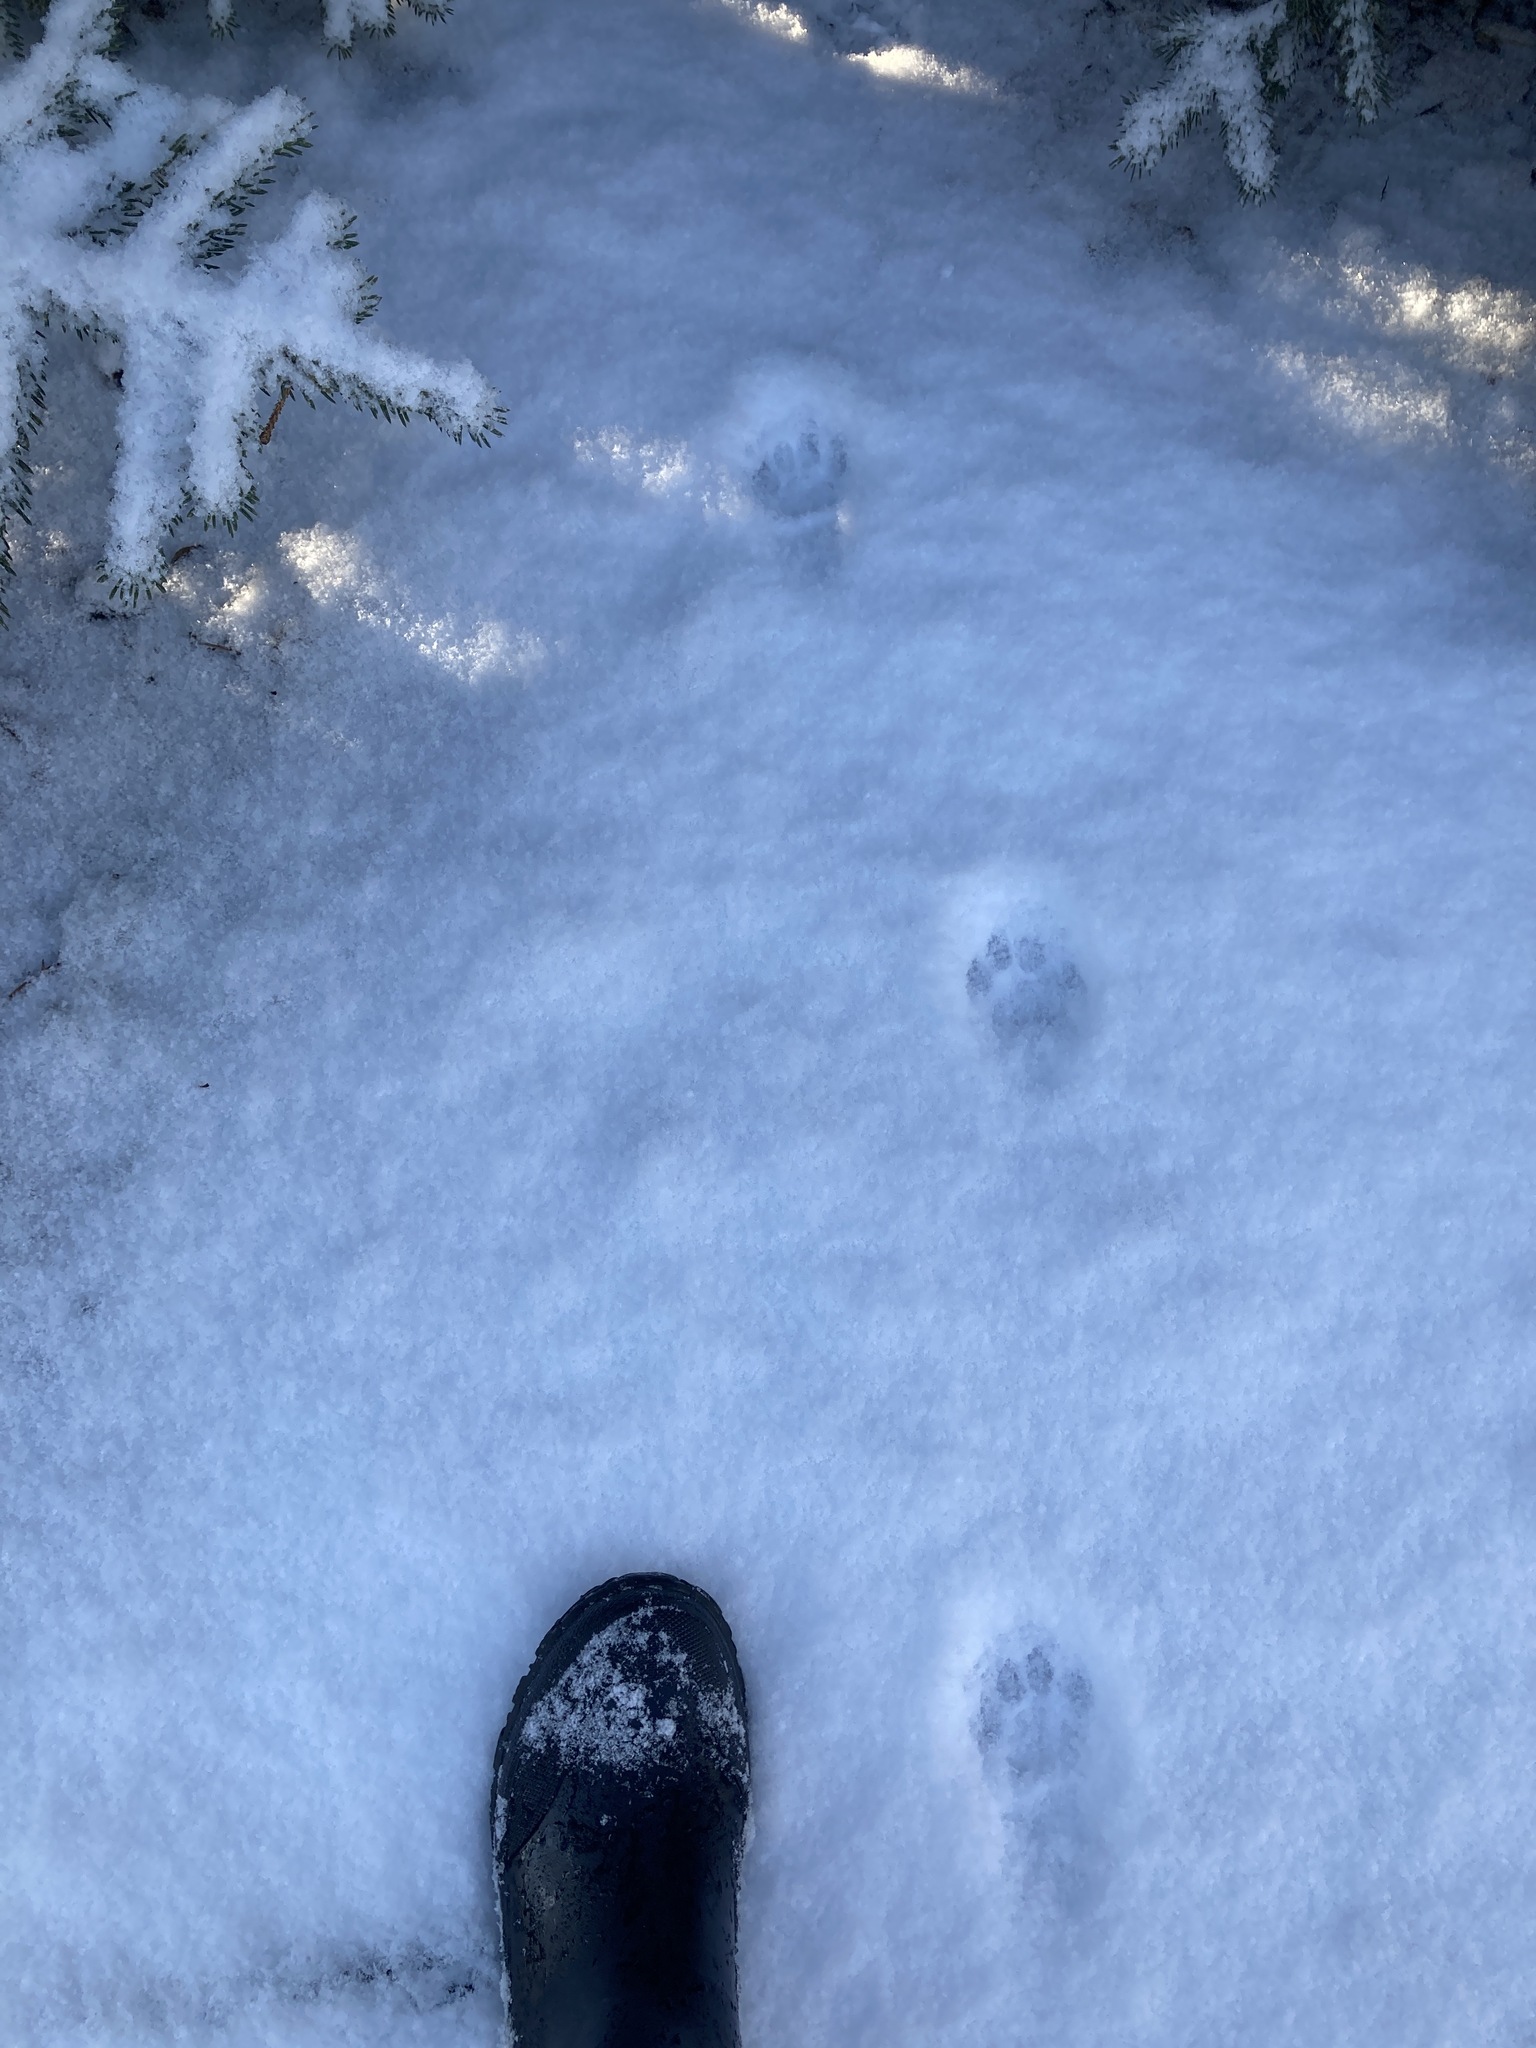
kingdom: Animalia
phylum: Chordata
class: Mammalia
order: Carnivora
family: Felidae
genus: Lynx
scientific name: Lynx rufus
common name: Bobcat
